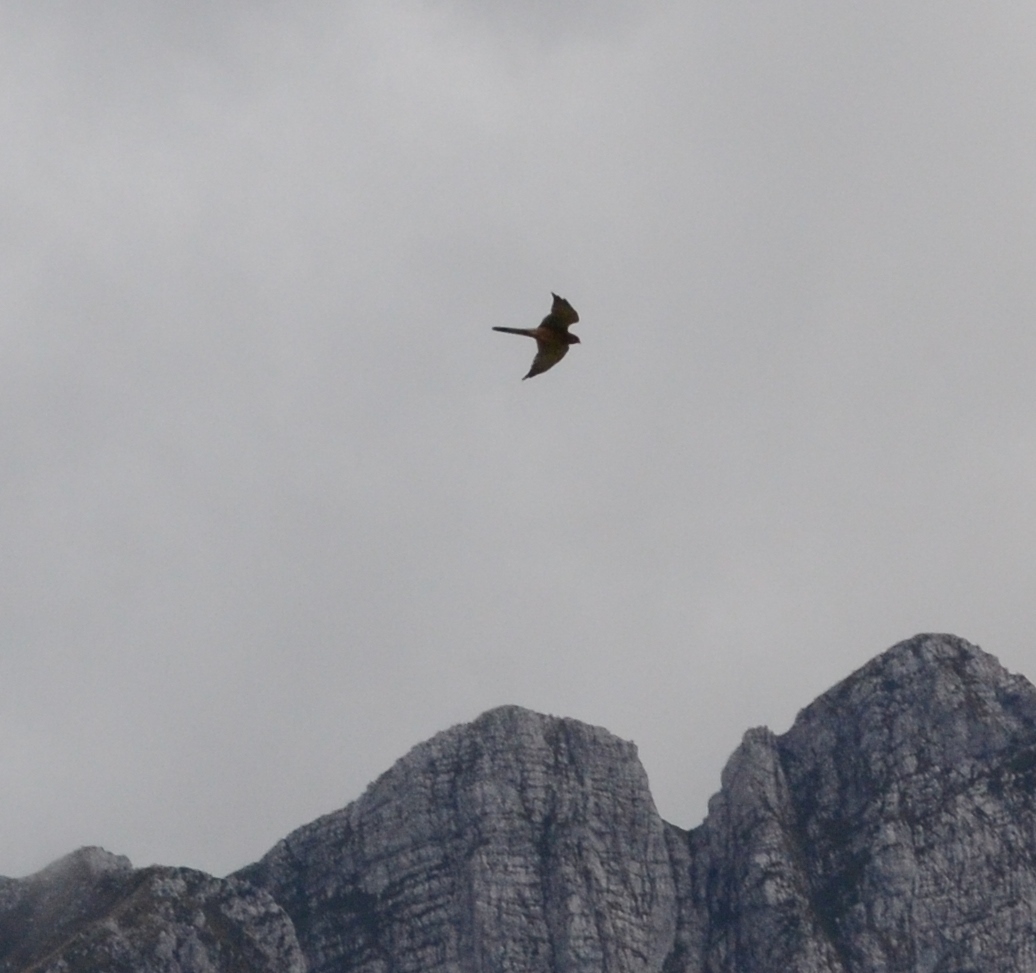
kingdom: Animalia
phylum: Chordata
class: Aves
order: Falconiformes
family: Falconidae
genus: Falco
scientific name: Falco tinnunculus
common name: Common kestrel
